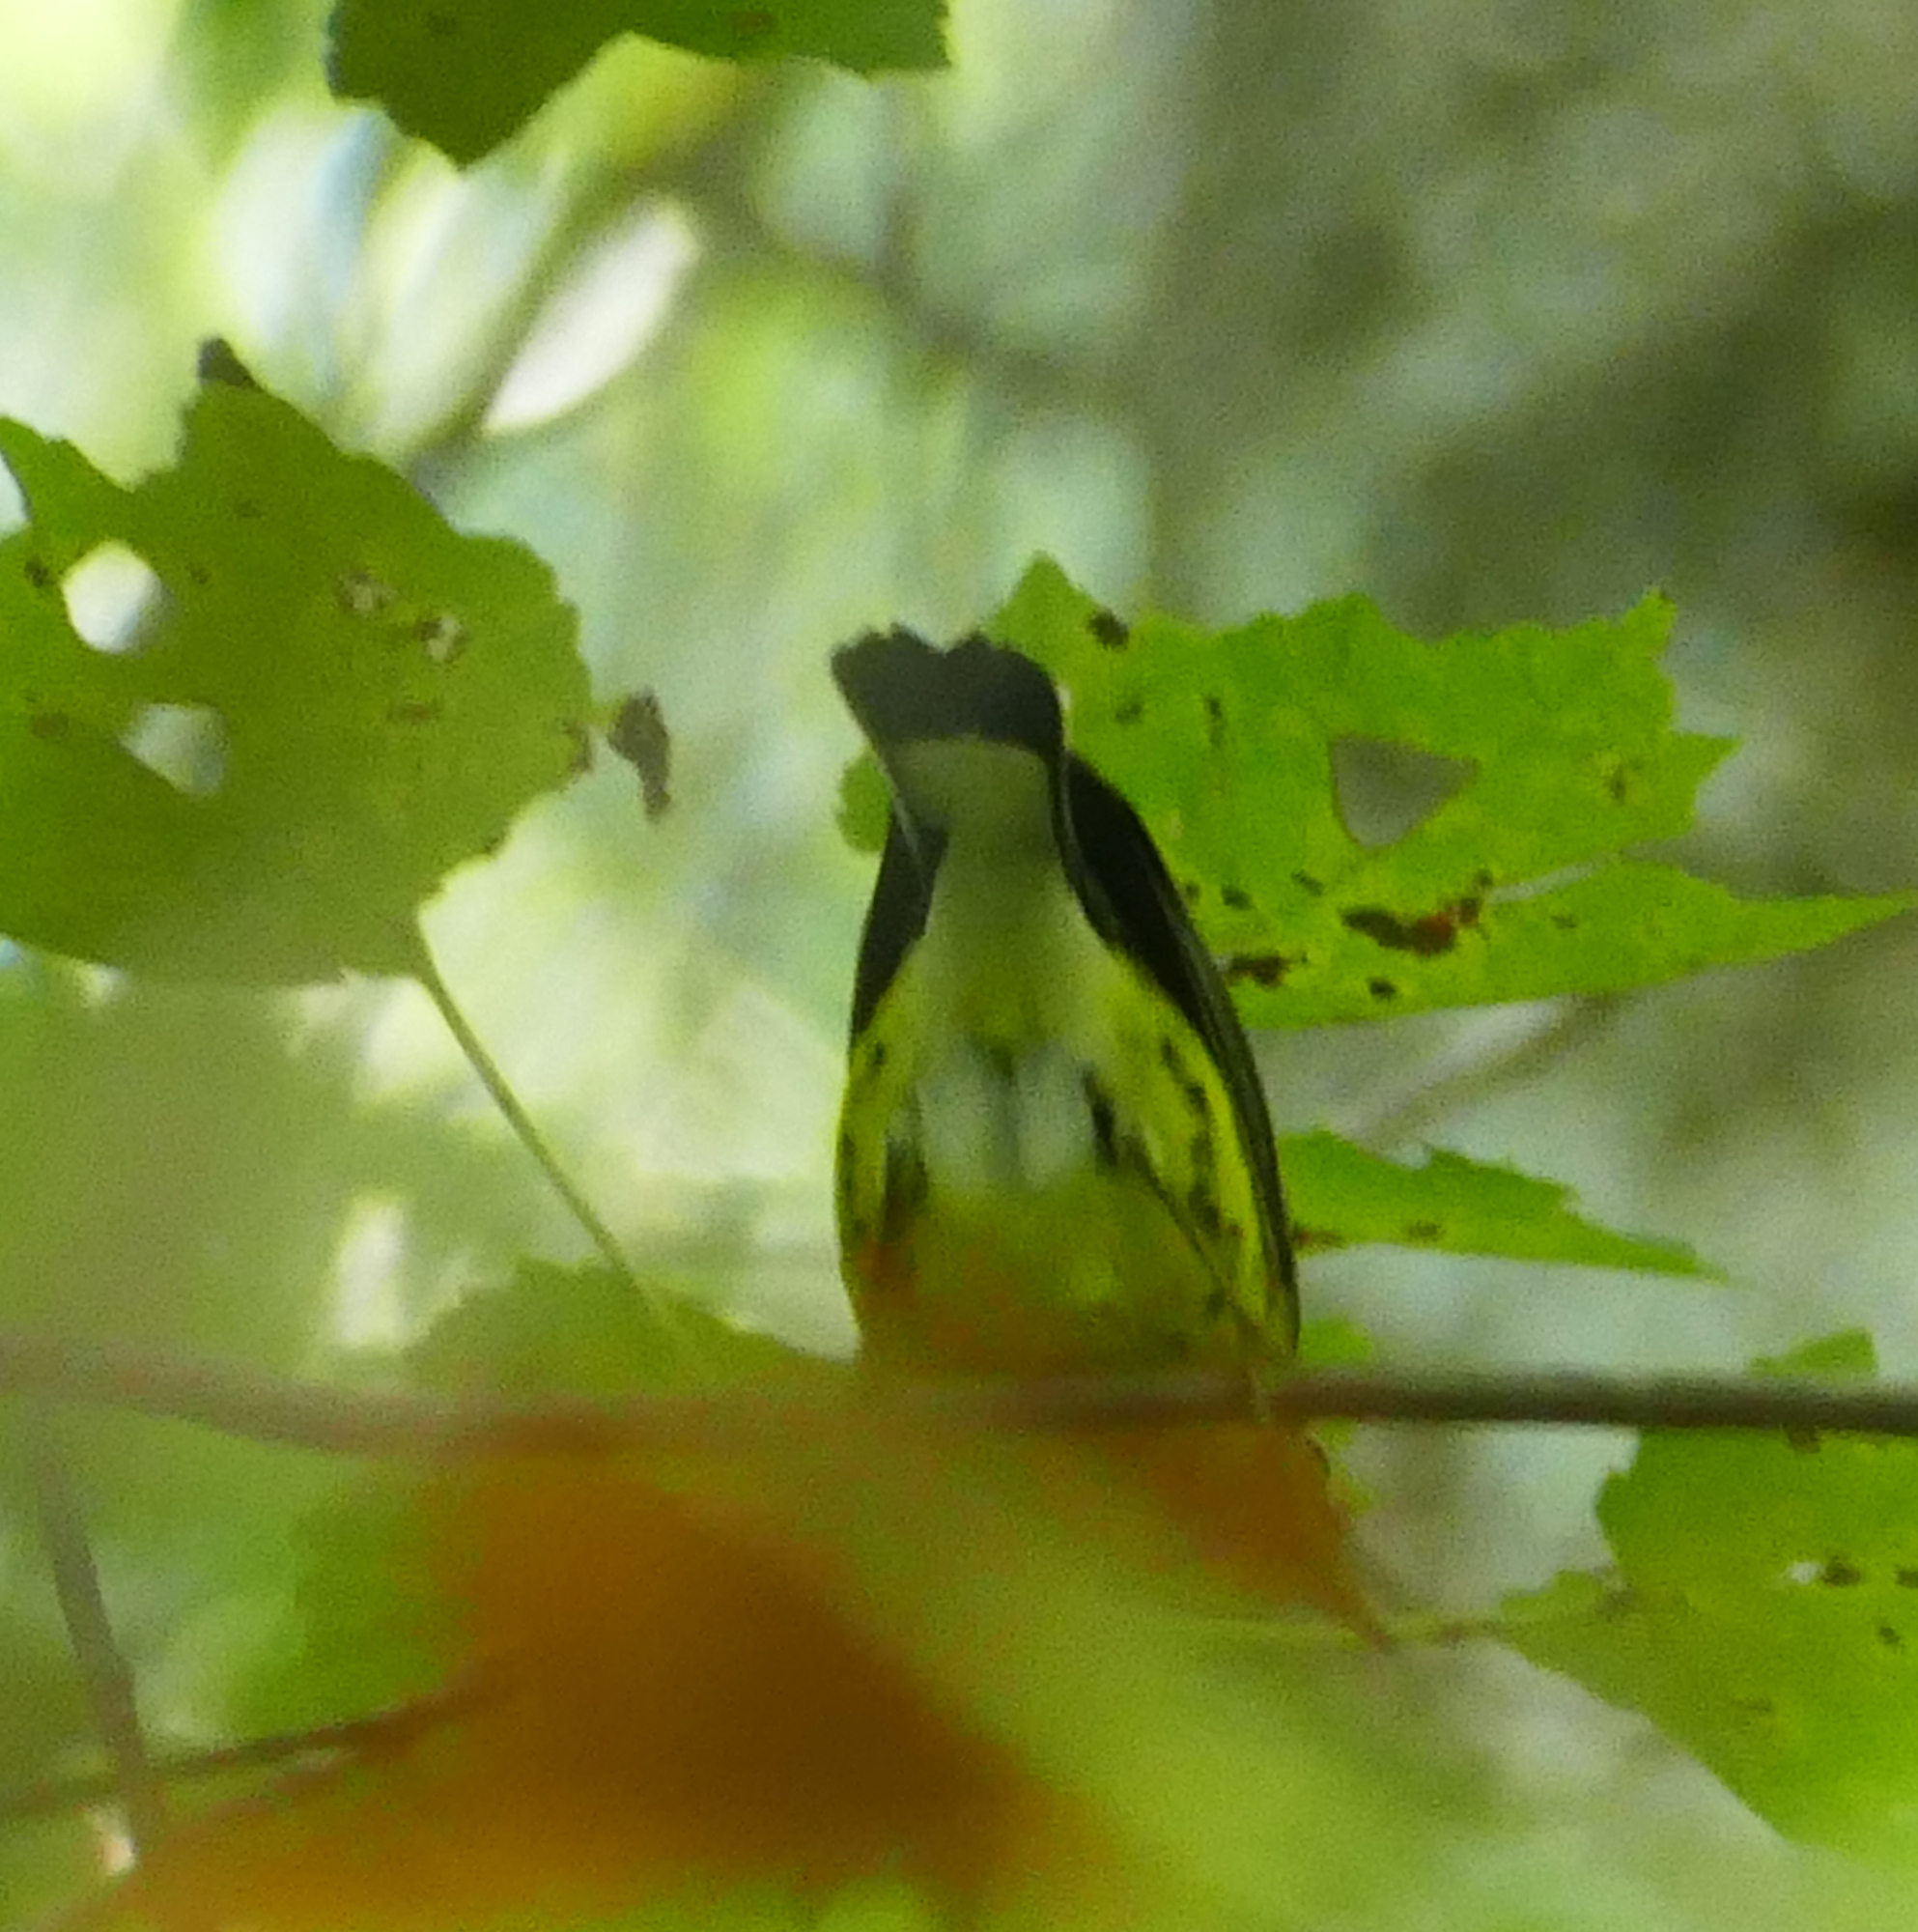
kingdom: Animalia
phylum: Chordata
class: Aves
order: Passeriformes
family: Parulidae
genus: Setophaga
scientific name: Setophaga magnolia
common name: Magnolia warbler
